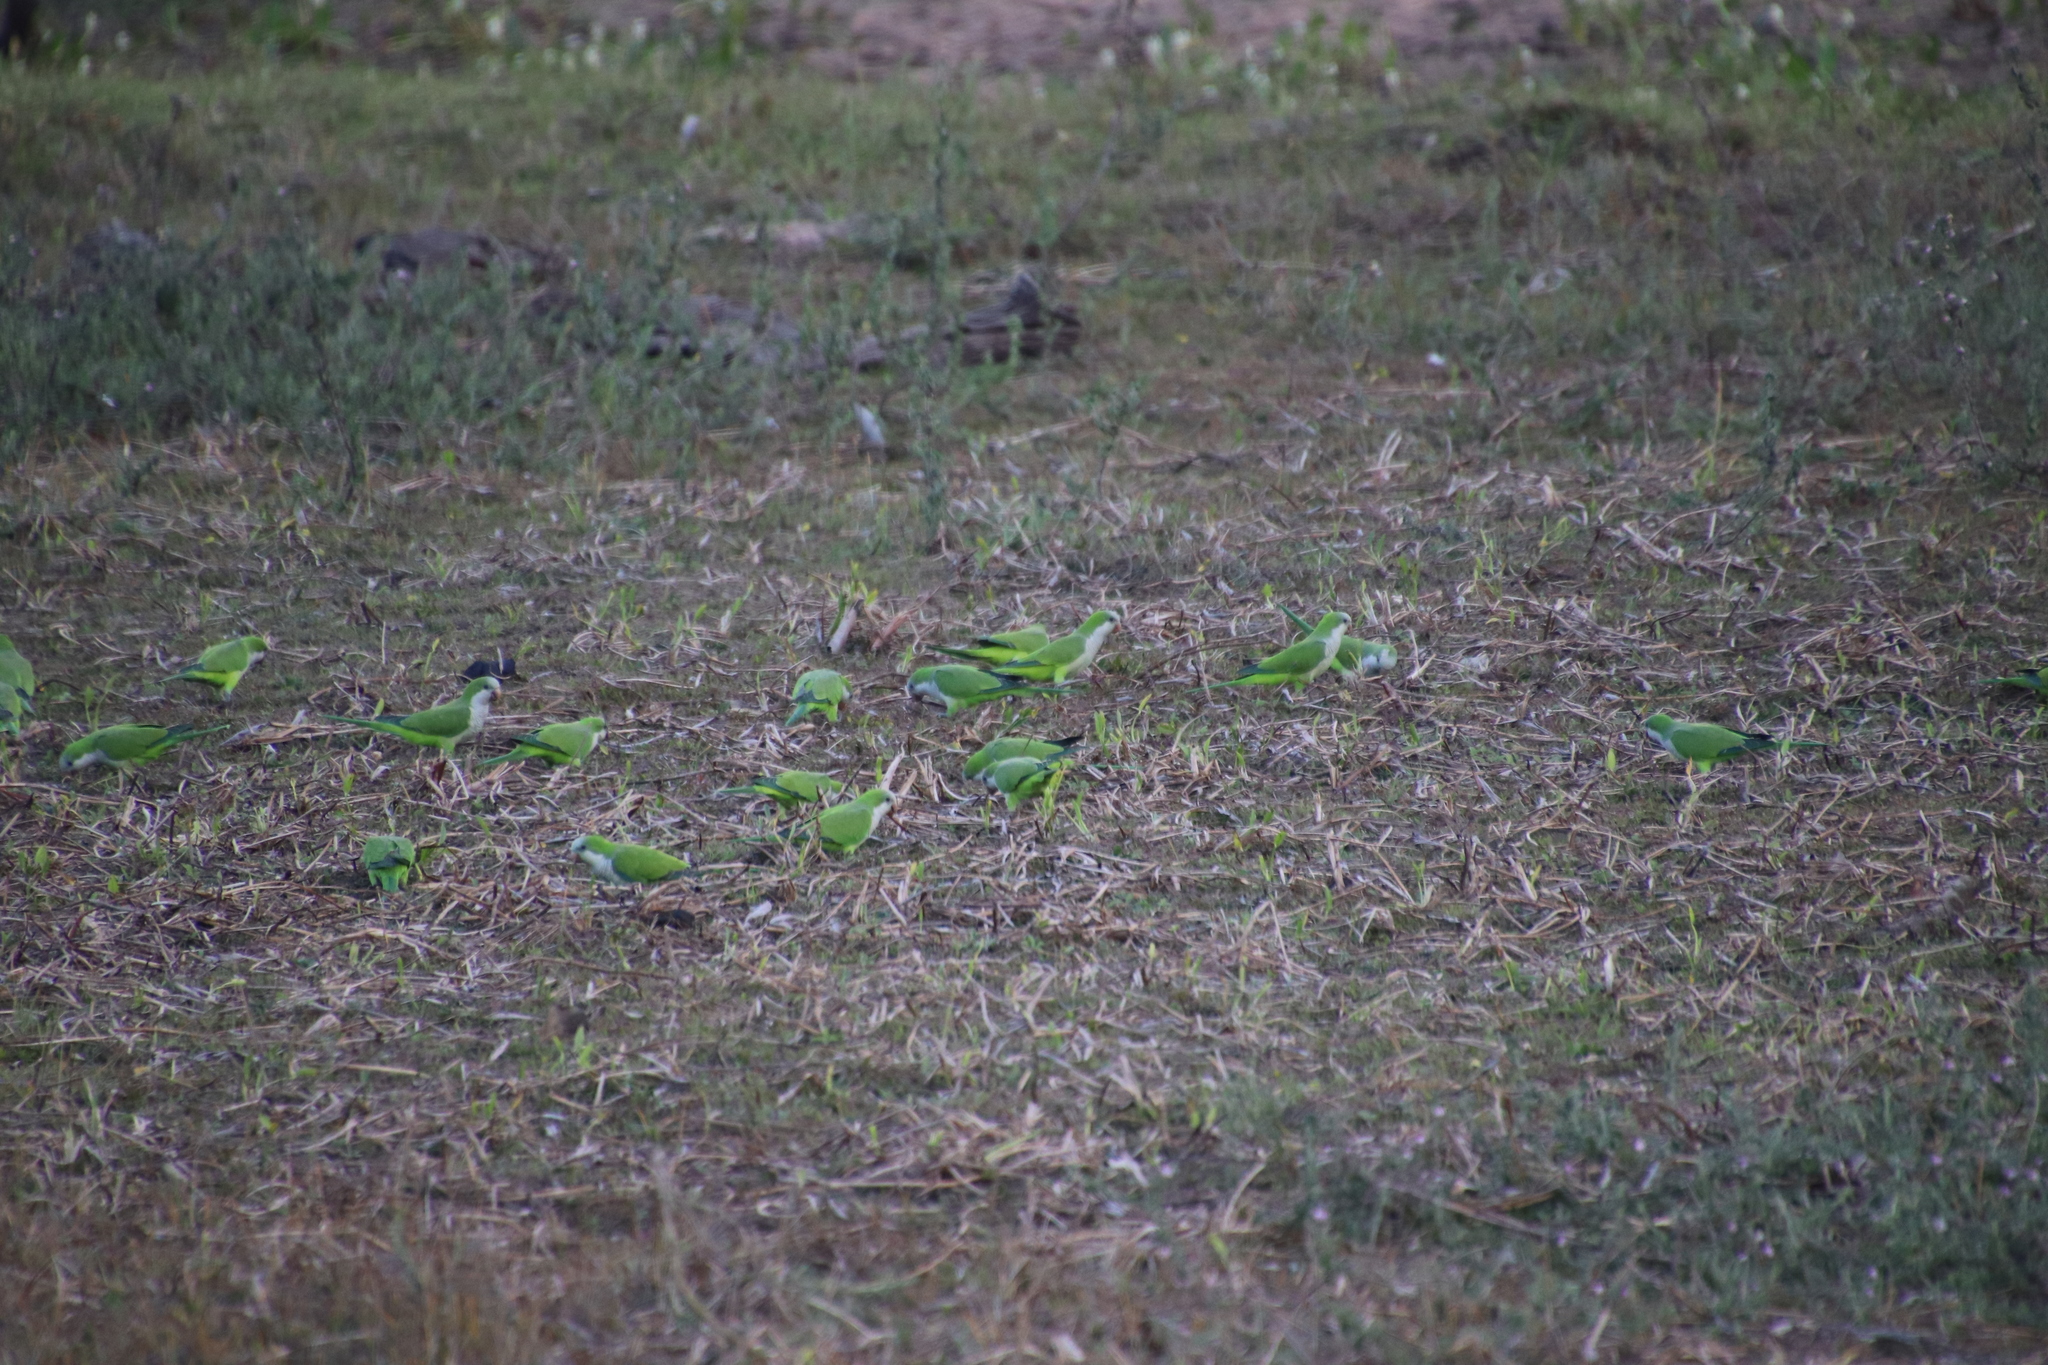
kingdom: Animalia
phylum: Chordata
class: Aves
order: Psittaciformes
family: Psittacidae
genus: Myiopsitta
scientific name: Myiopsitta monachus
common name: Monk parakeet
